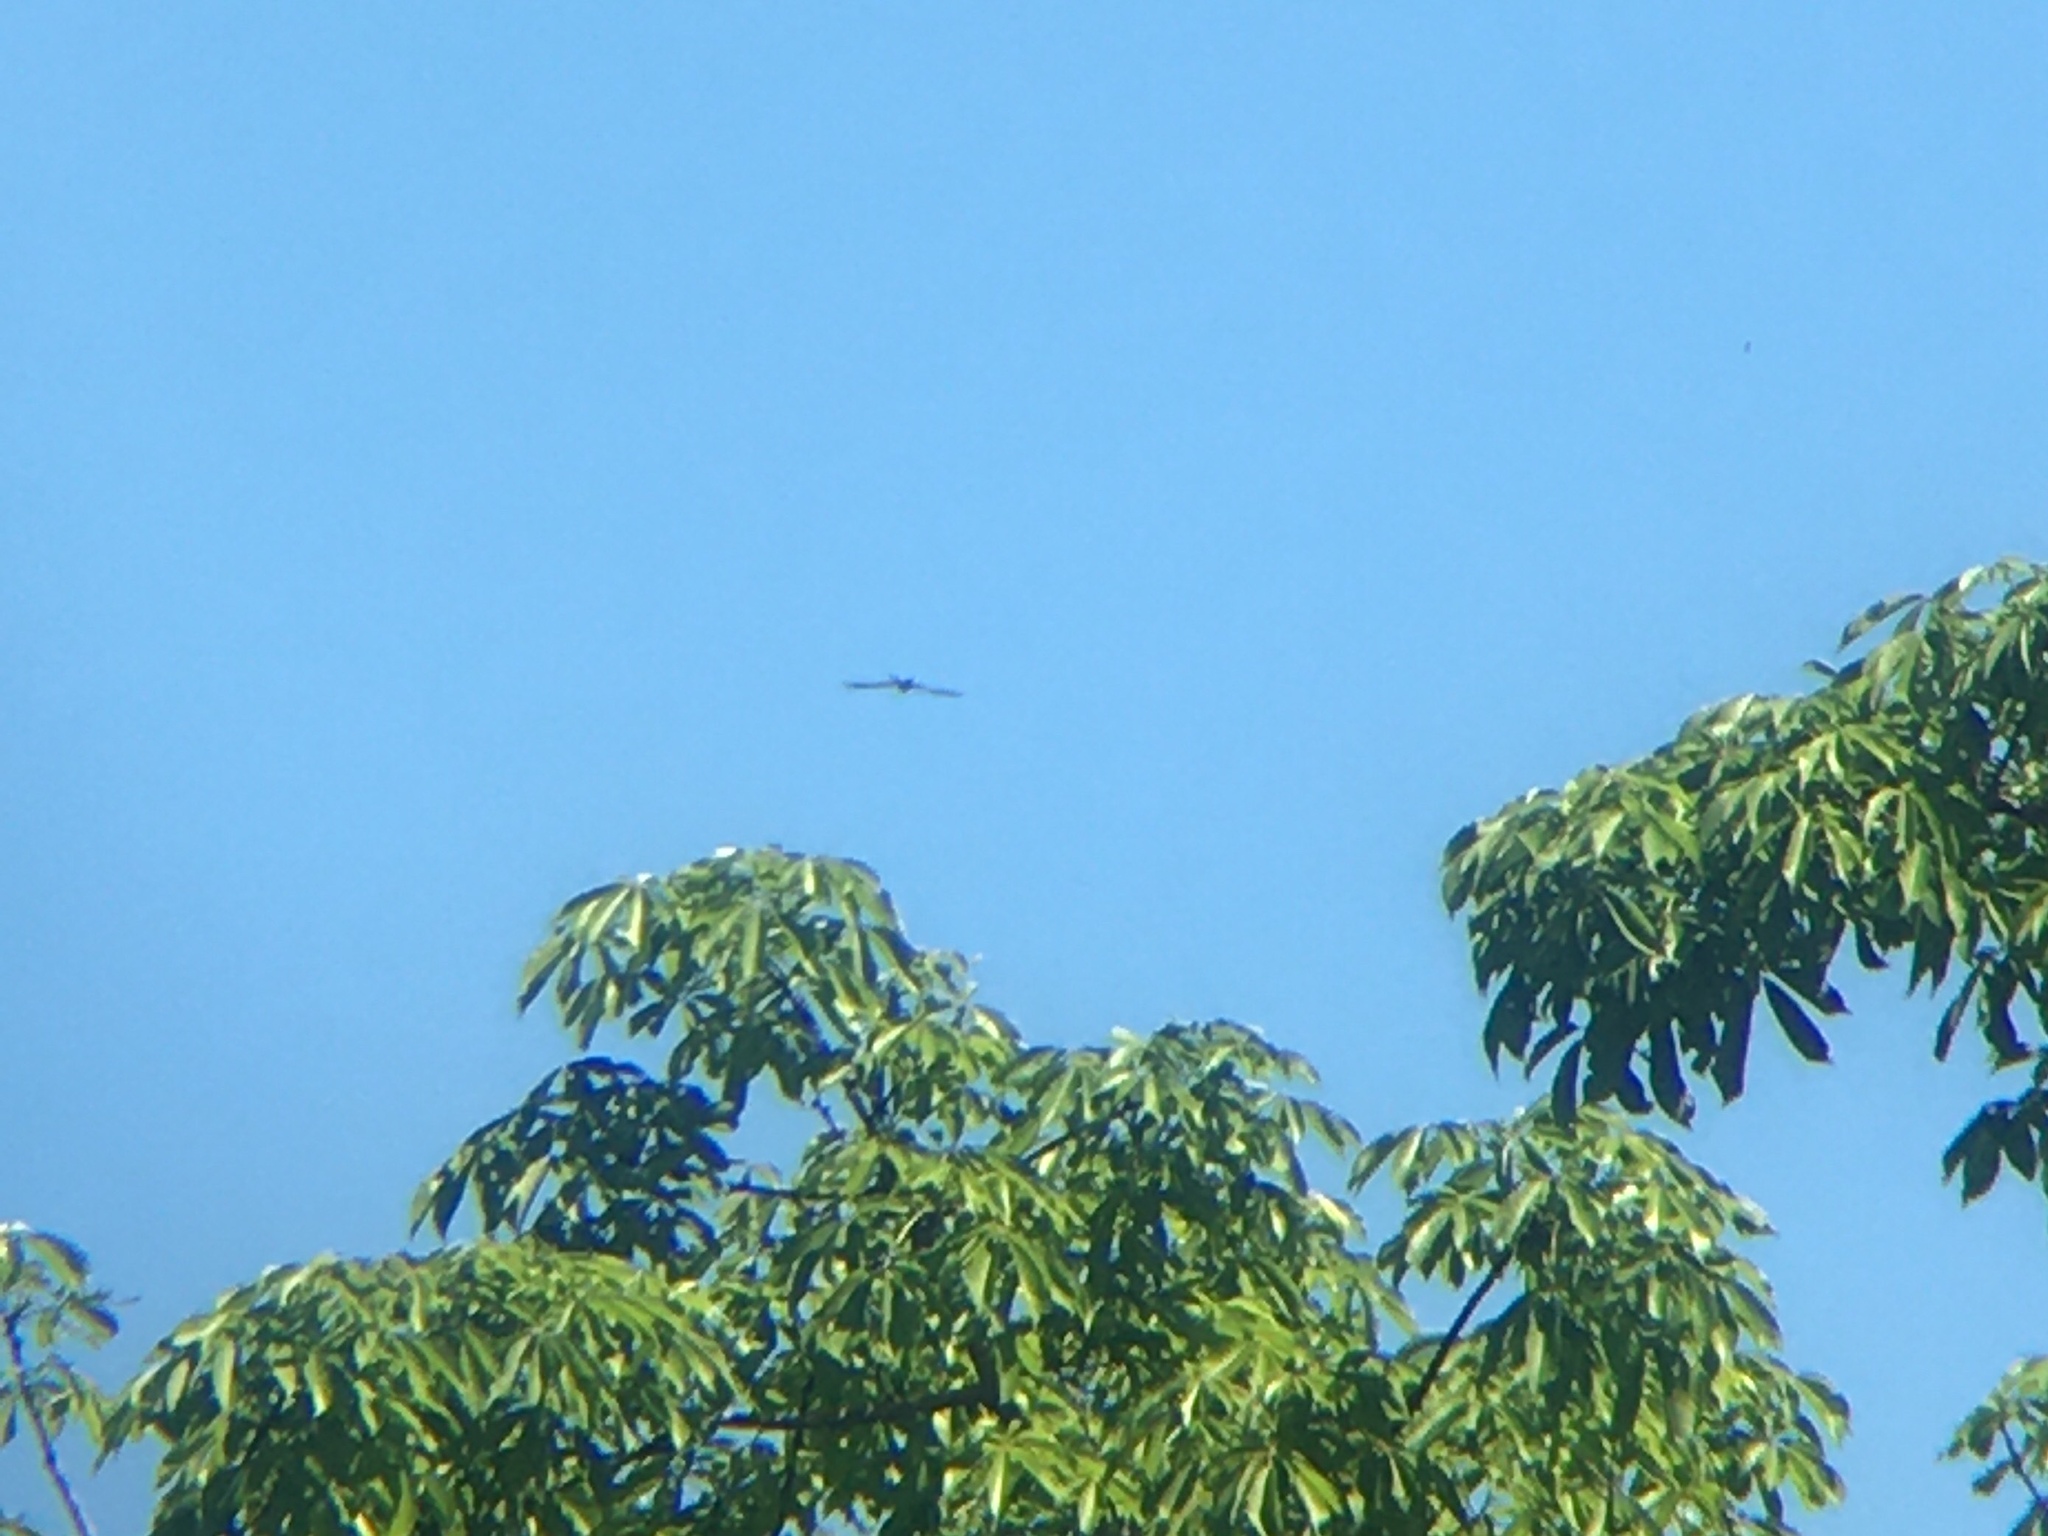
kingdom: Animalia
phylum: Chordata
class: Aves
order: Accipitriformes
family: Accipitridae
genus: Elanoides
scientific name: Elanoides forficatus
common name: Swallow-tailed kite
